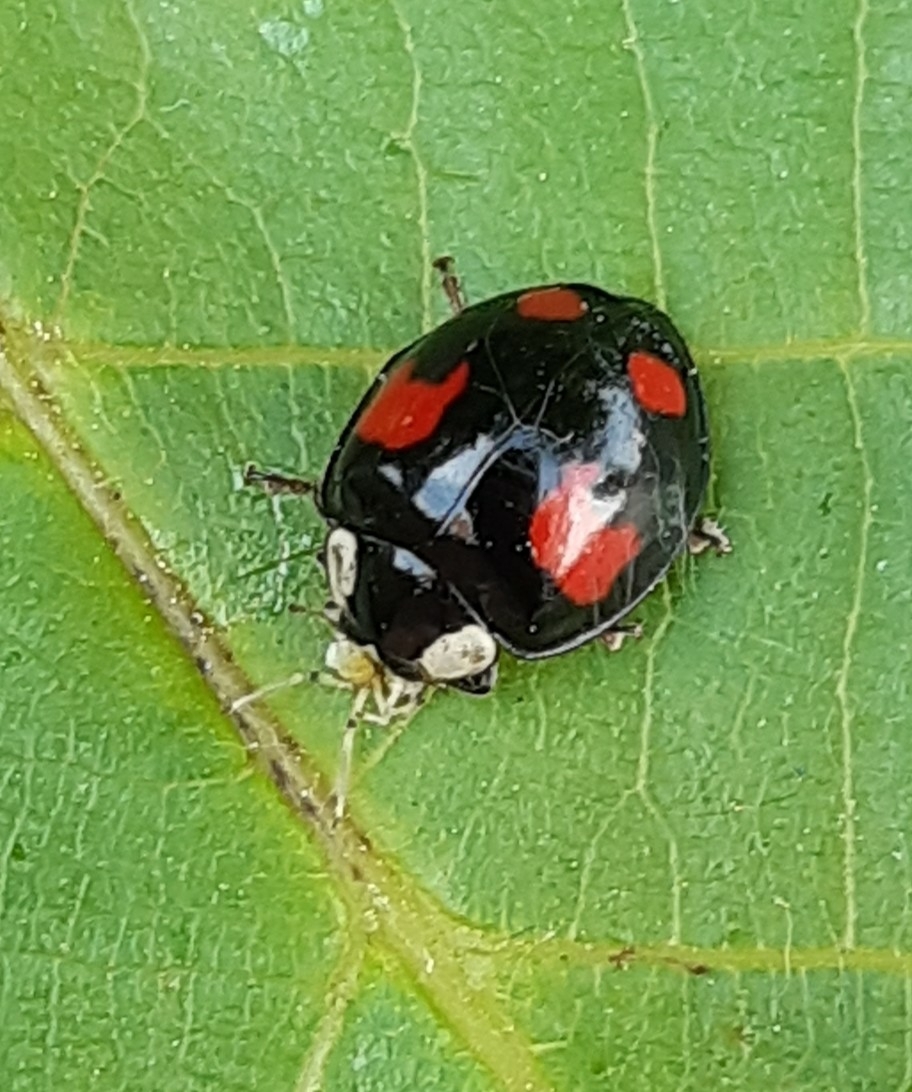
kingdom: Animalia
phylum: Arthropoda
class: Insecta
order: Coleoptera
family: Coccinellidae
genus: Harmonia
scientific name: Harmonia axyridis
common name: Harlequin ladybird
